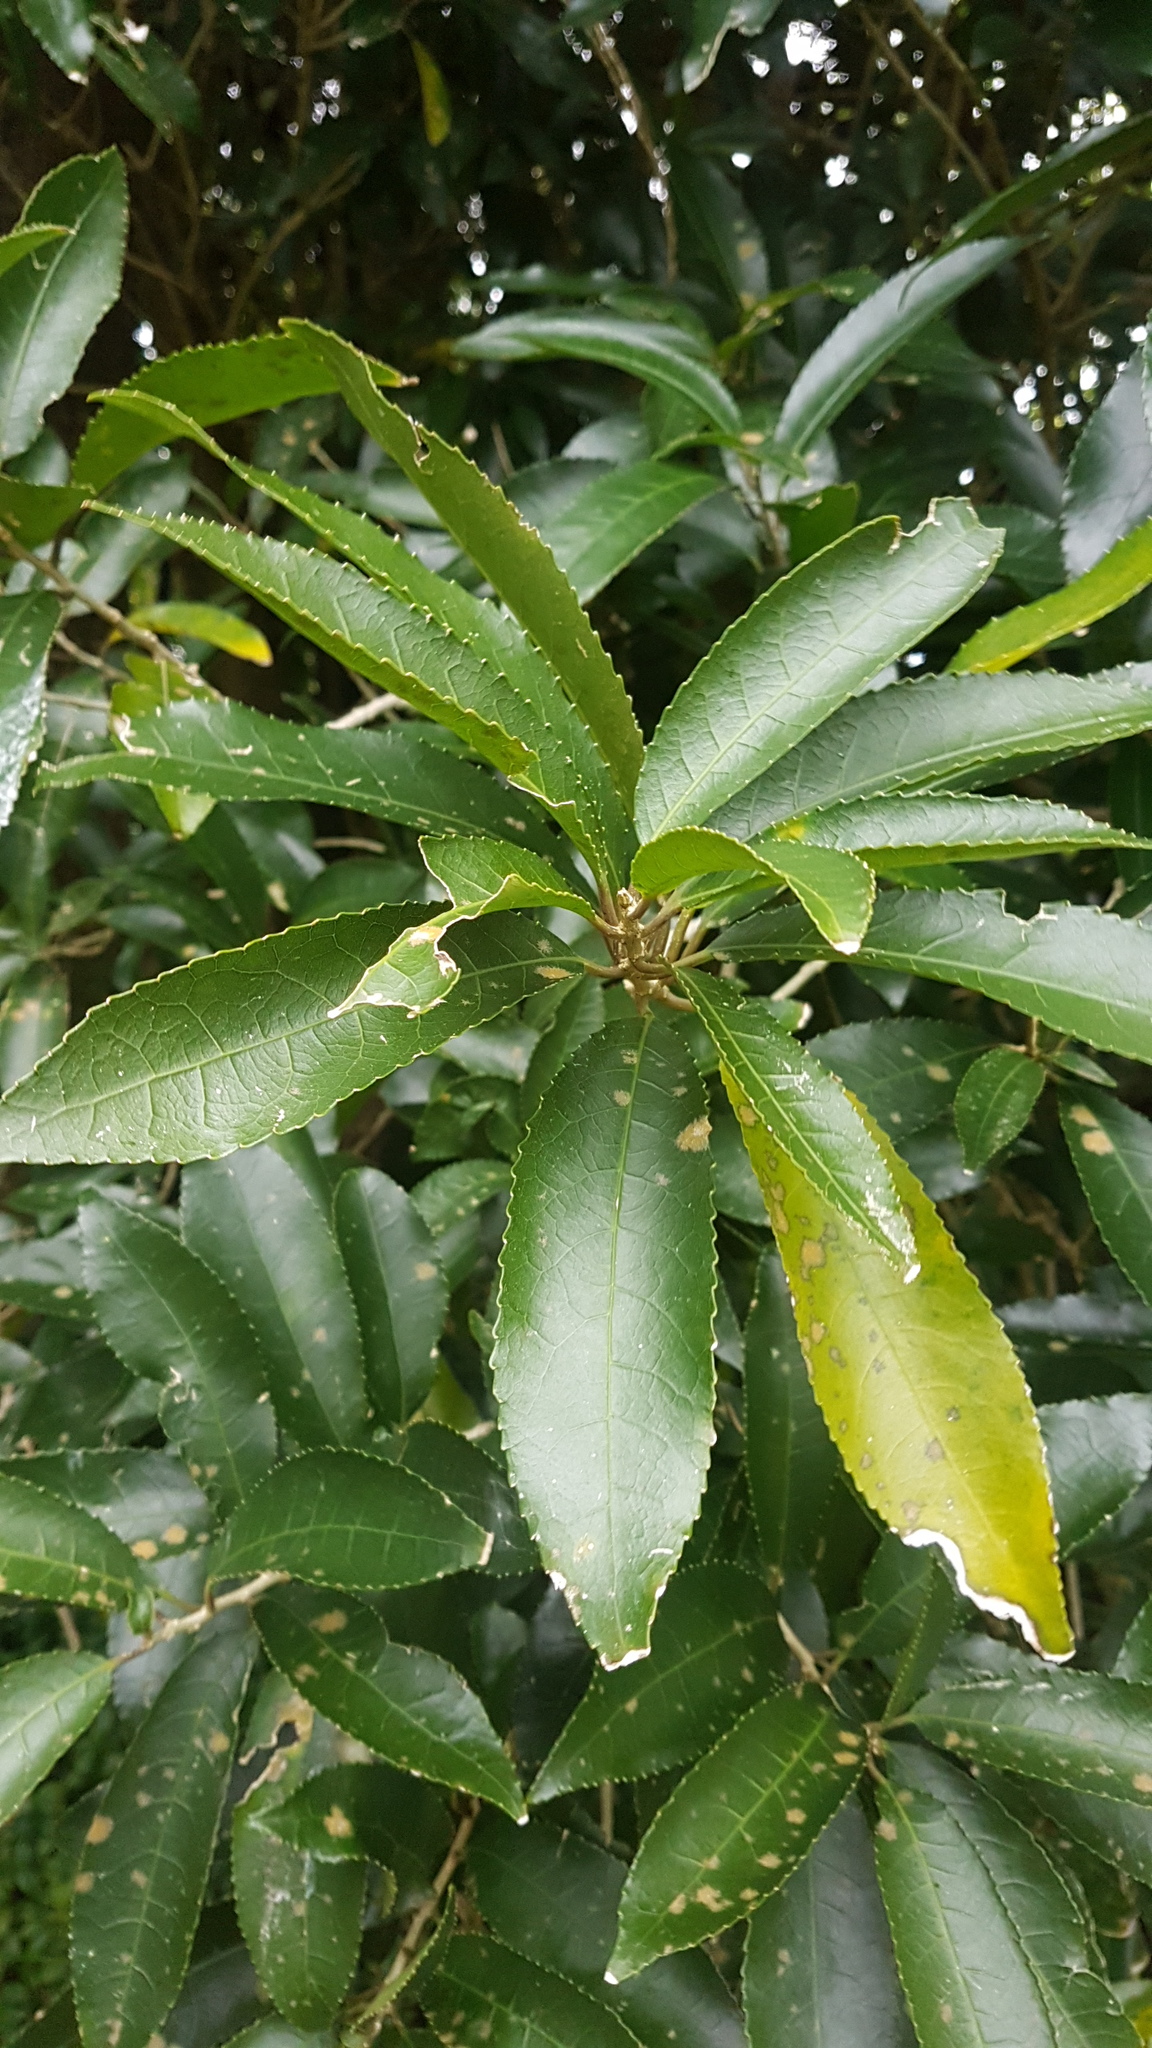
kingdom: Plantae
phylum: Tracheophyta
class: Magnoliopsida
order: Malpighiales
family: Violaceae
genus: Melicytus
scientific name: Melicytus ramiflorus
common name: Mahoe
